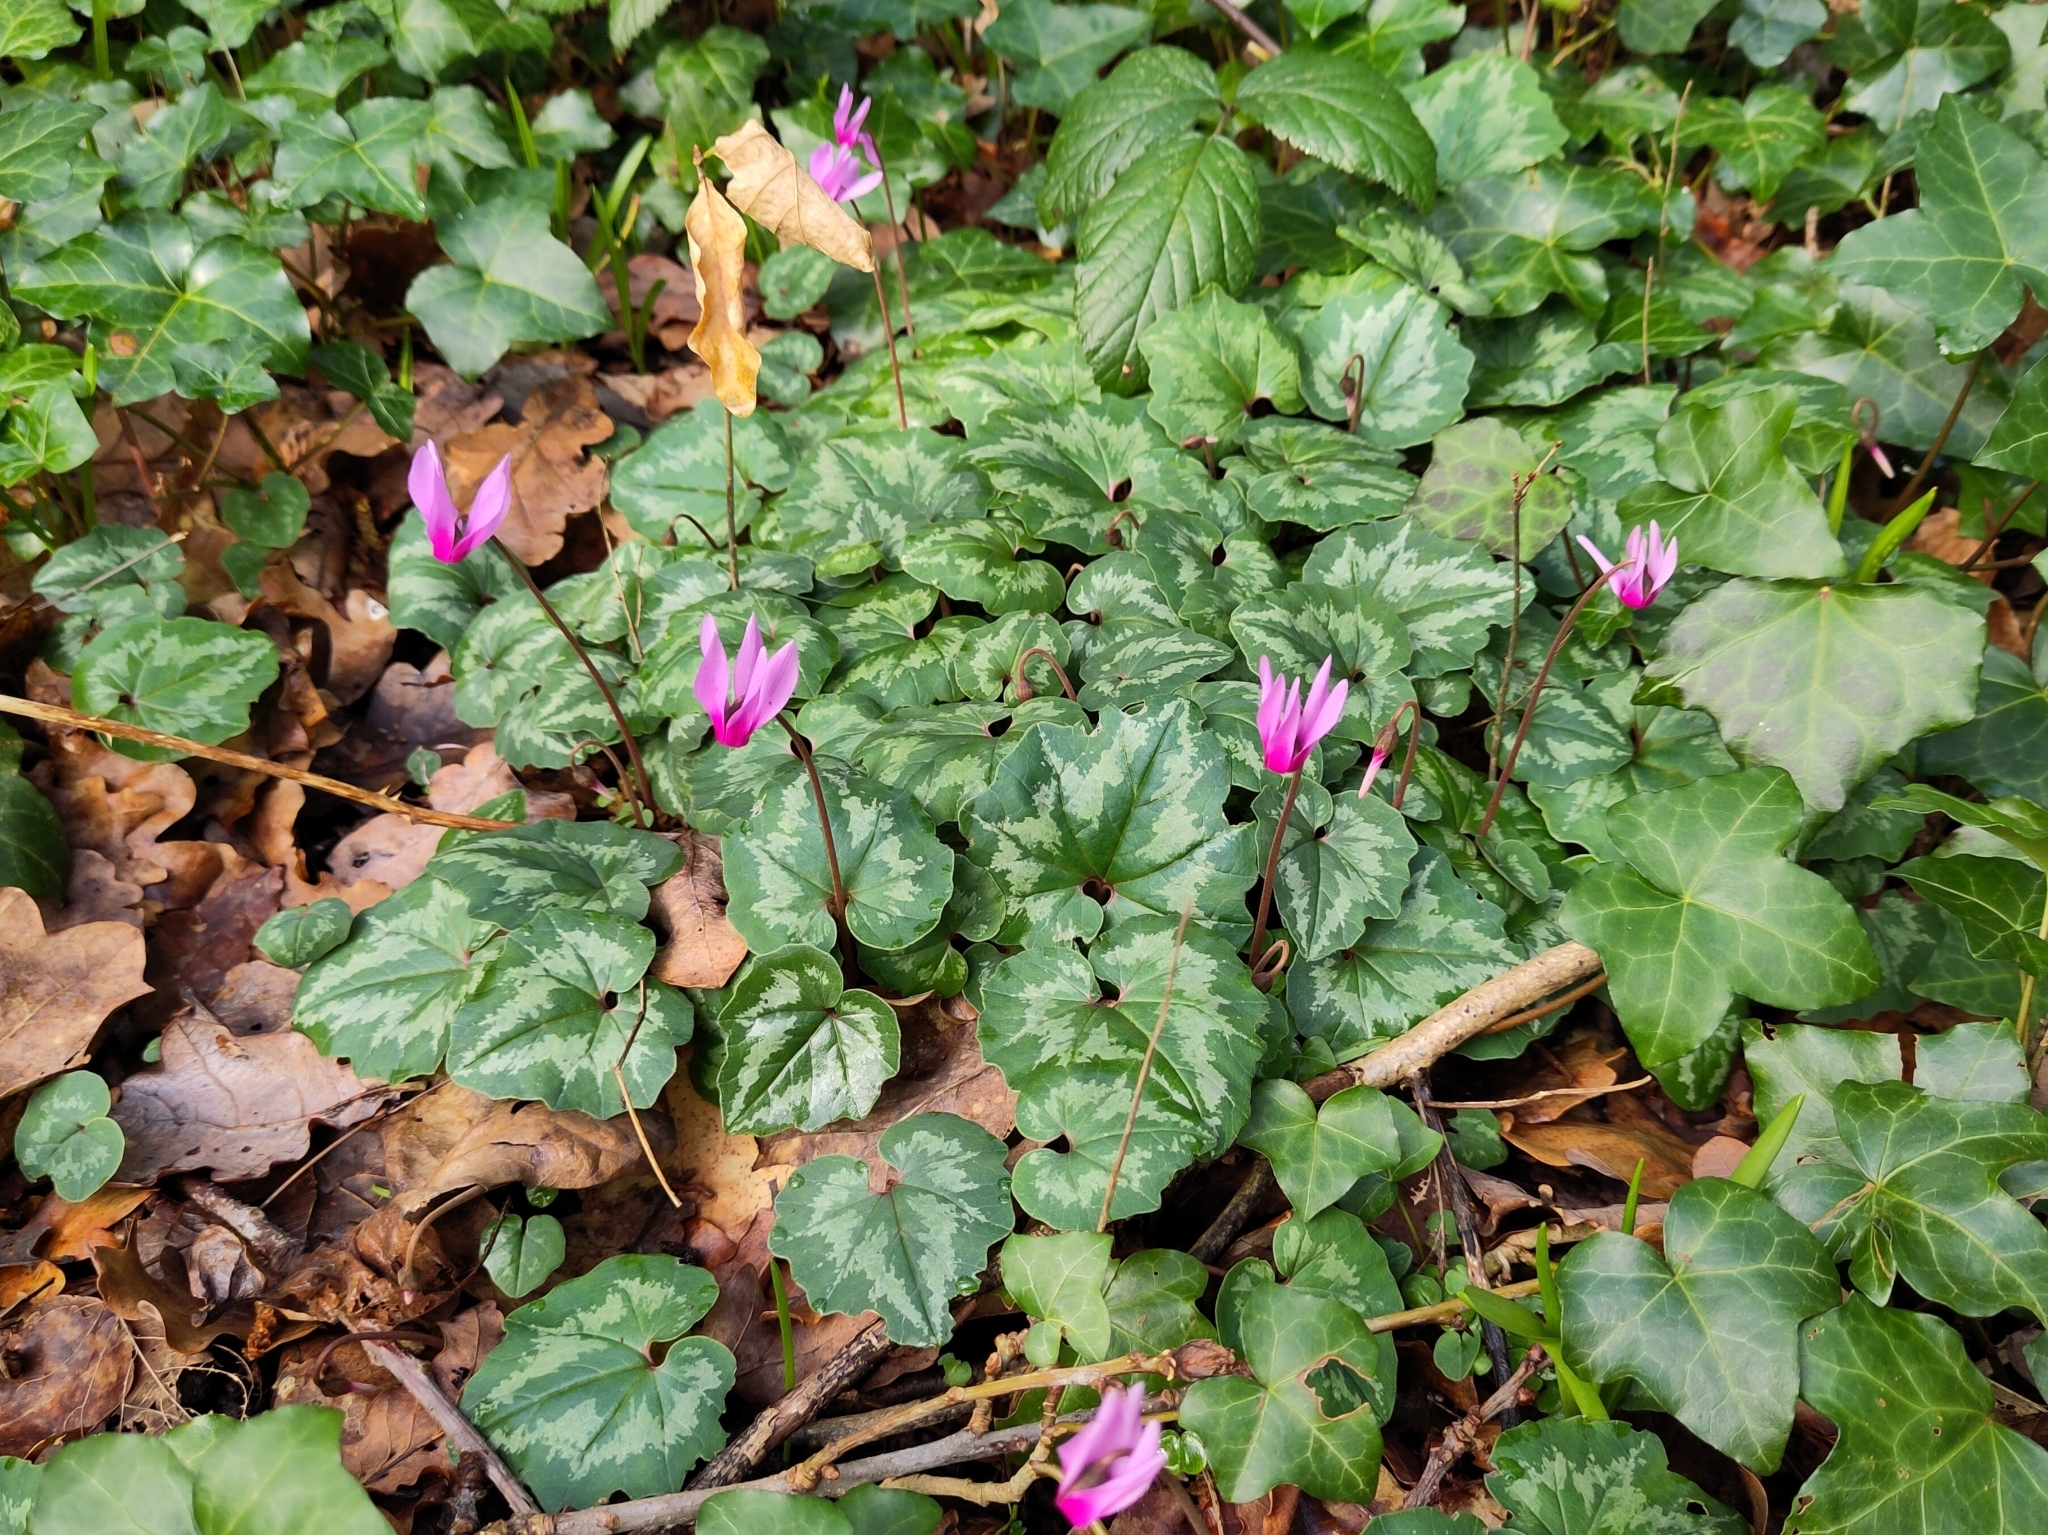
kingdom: Plantae
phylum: Tracheophyta
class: Magnoliopsida
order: Ericales
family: Primulaceae
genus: Cyclamen
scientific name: Cyclamen hederifolium
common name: Sowbread
